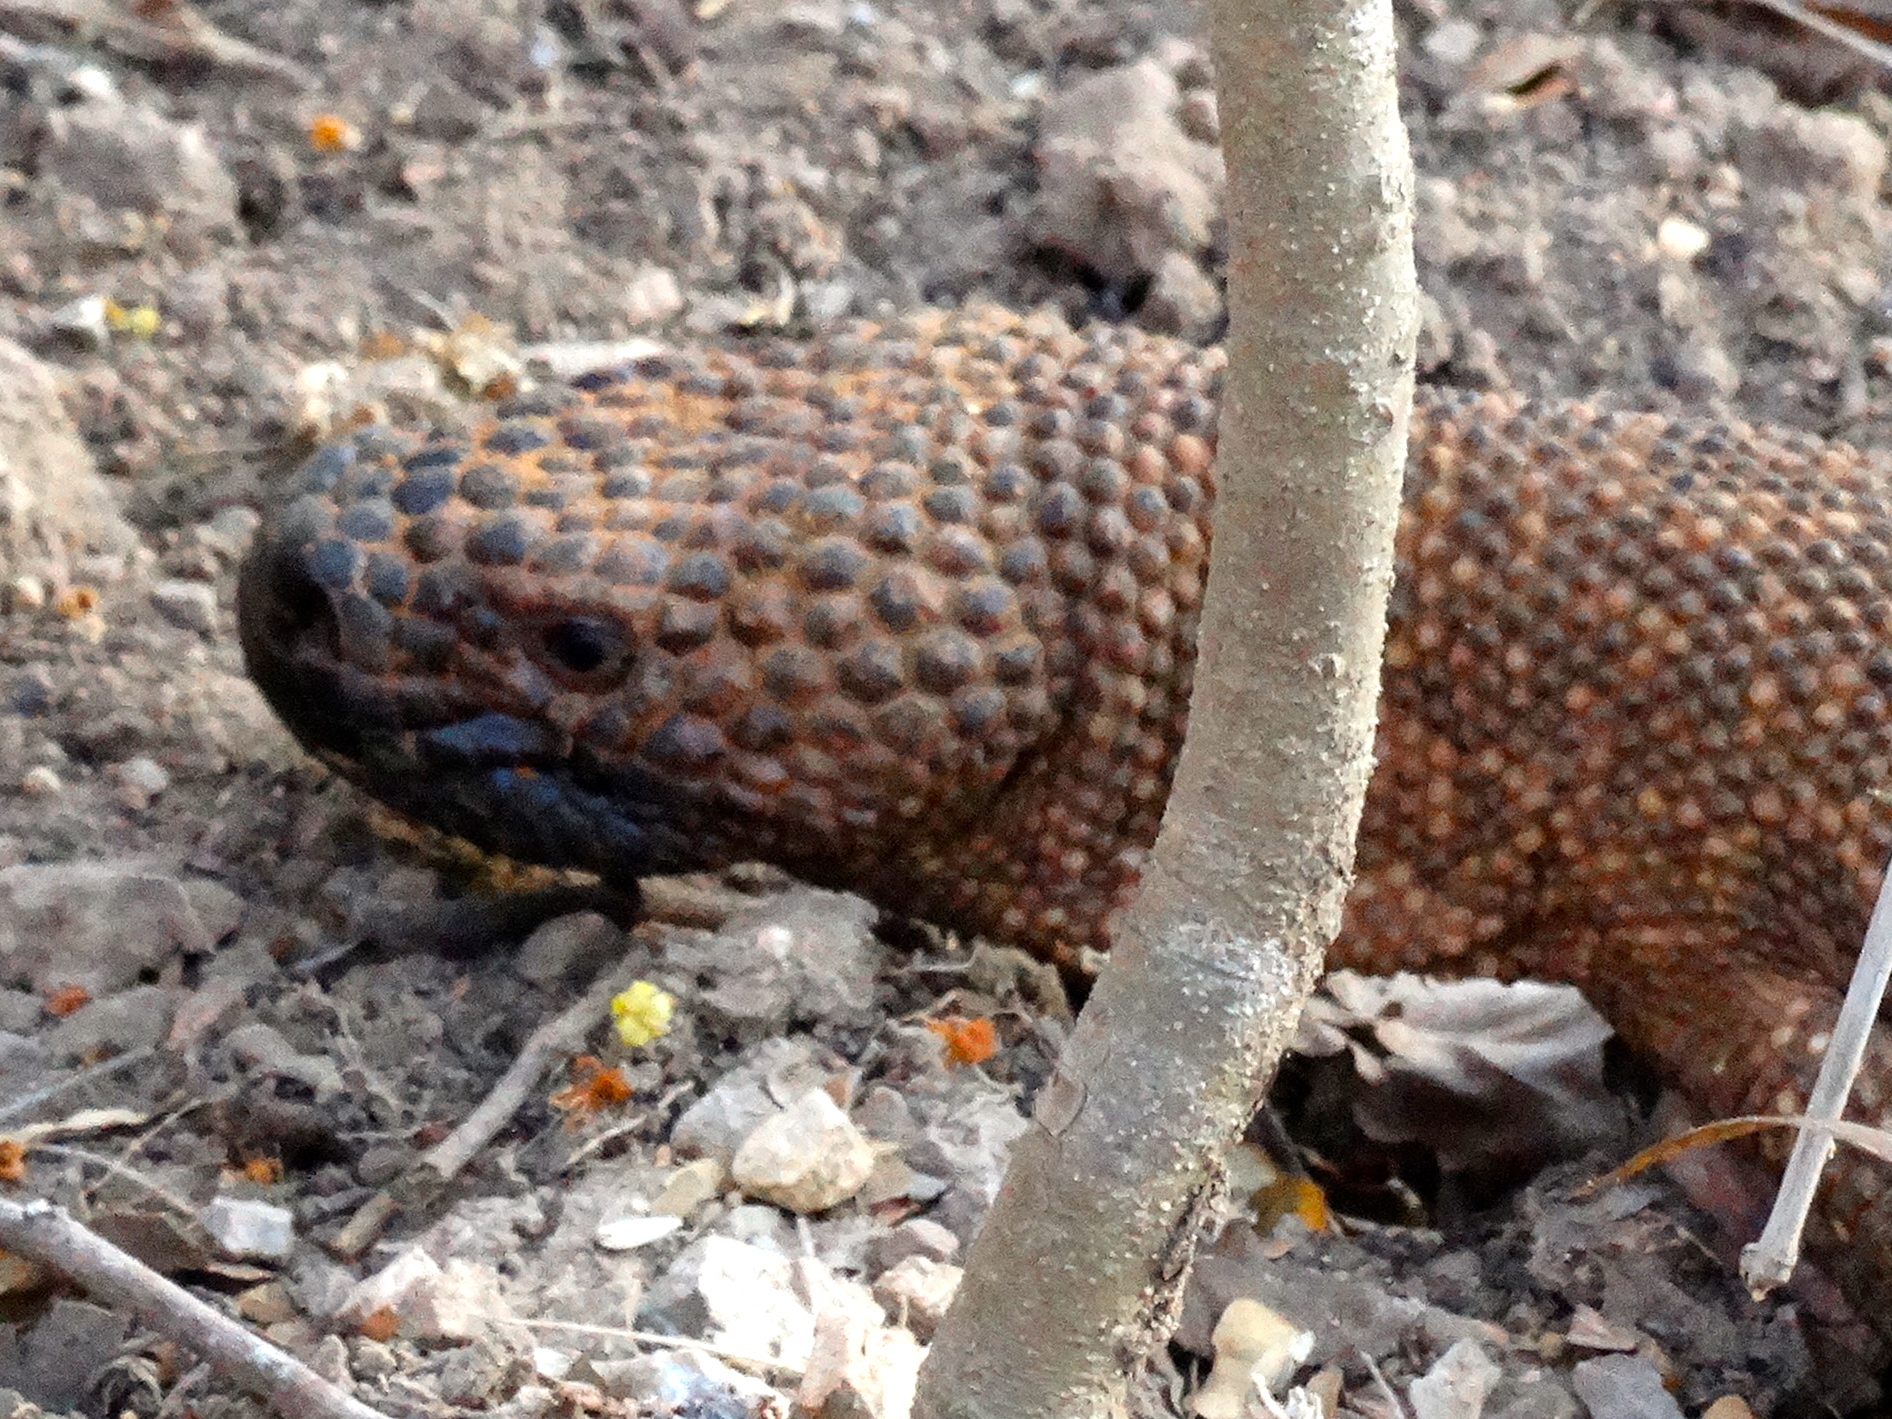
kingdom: Animalia
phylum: Chordata
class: Squamata
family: Helodermatidae
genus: Heloderma
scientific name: Heloderma horridum
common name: Mexican beaded lizard
